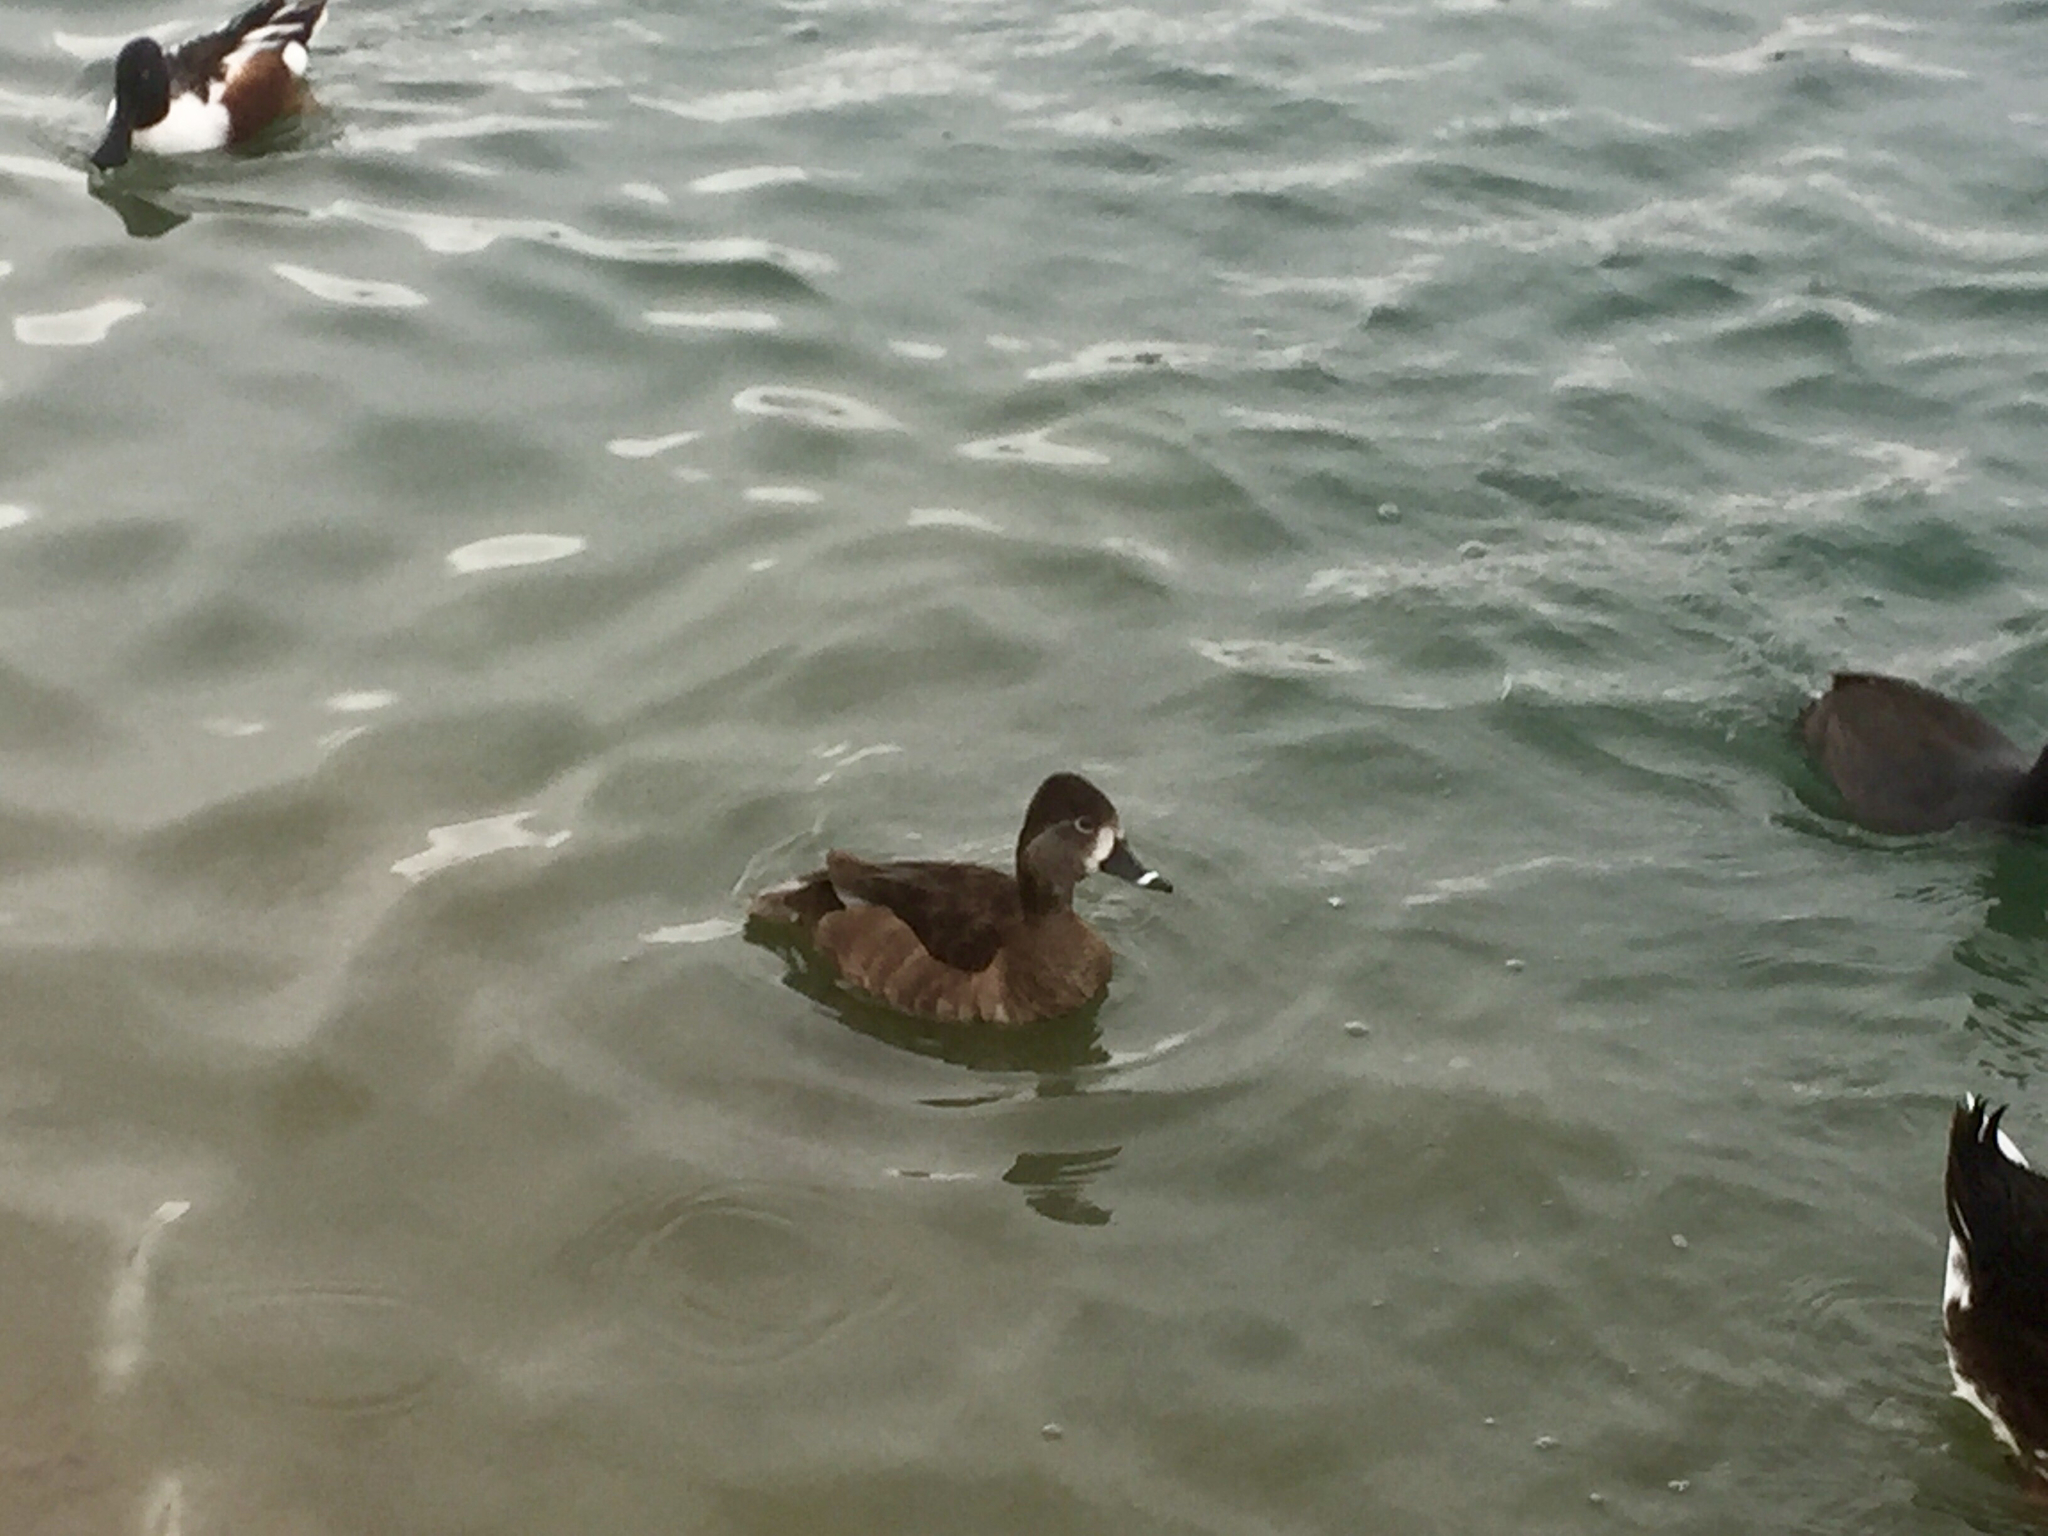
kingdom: Animalia
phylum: Chordata
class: Aves
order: Anseriformes
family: Anatidae
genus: Aythya
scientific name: Aythya collaris
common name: Ring-necked duck
